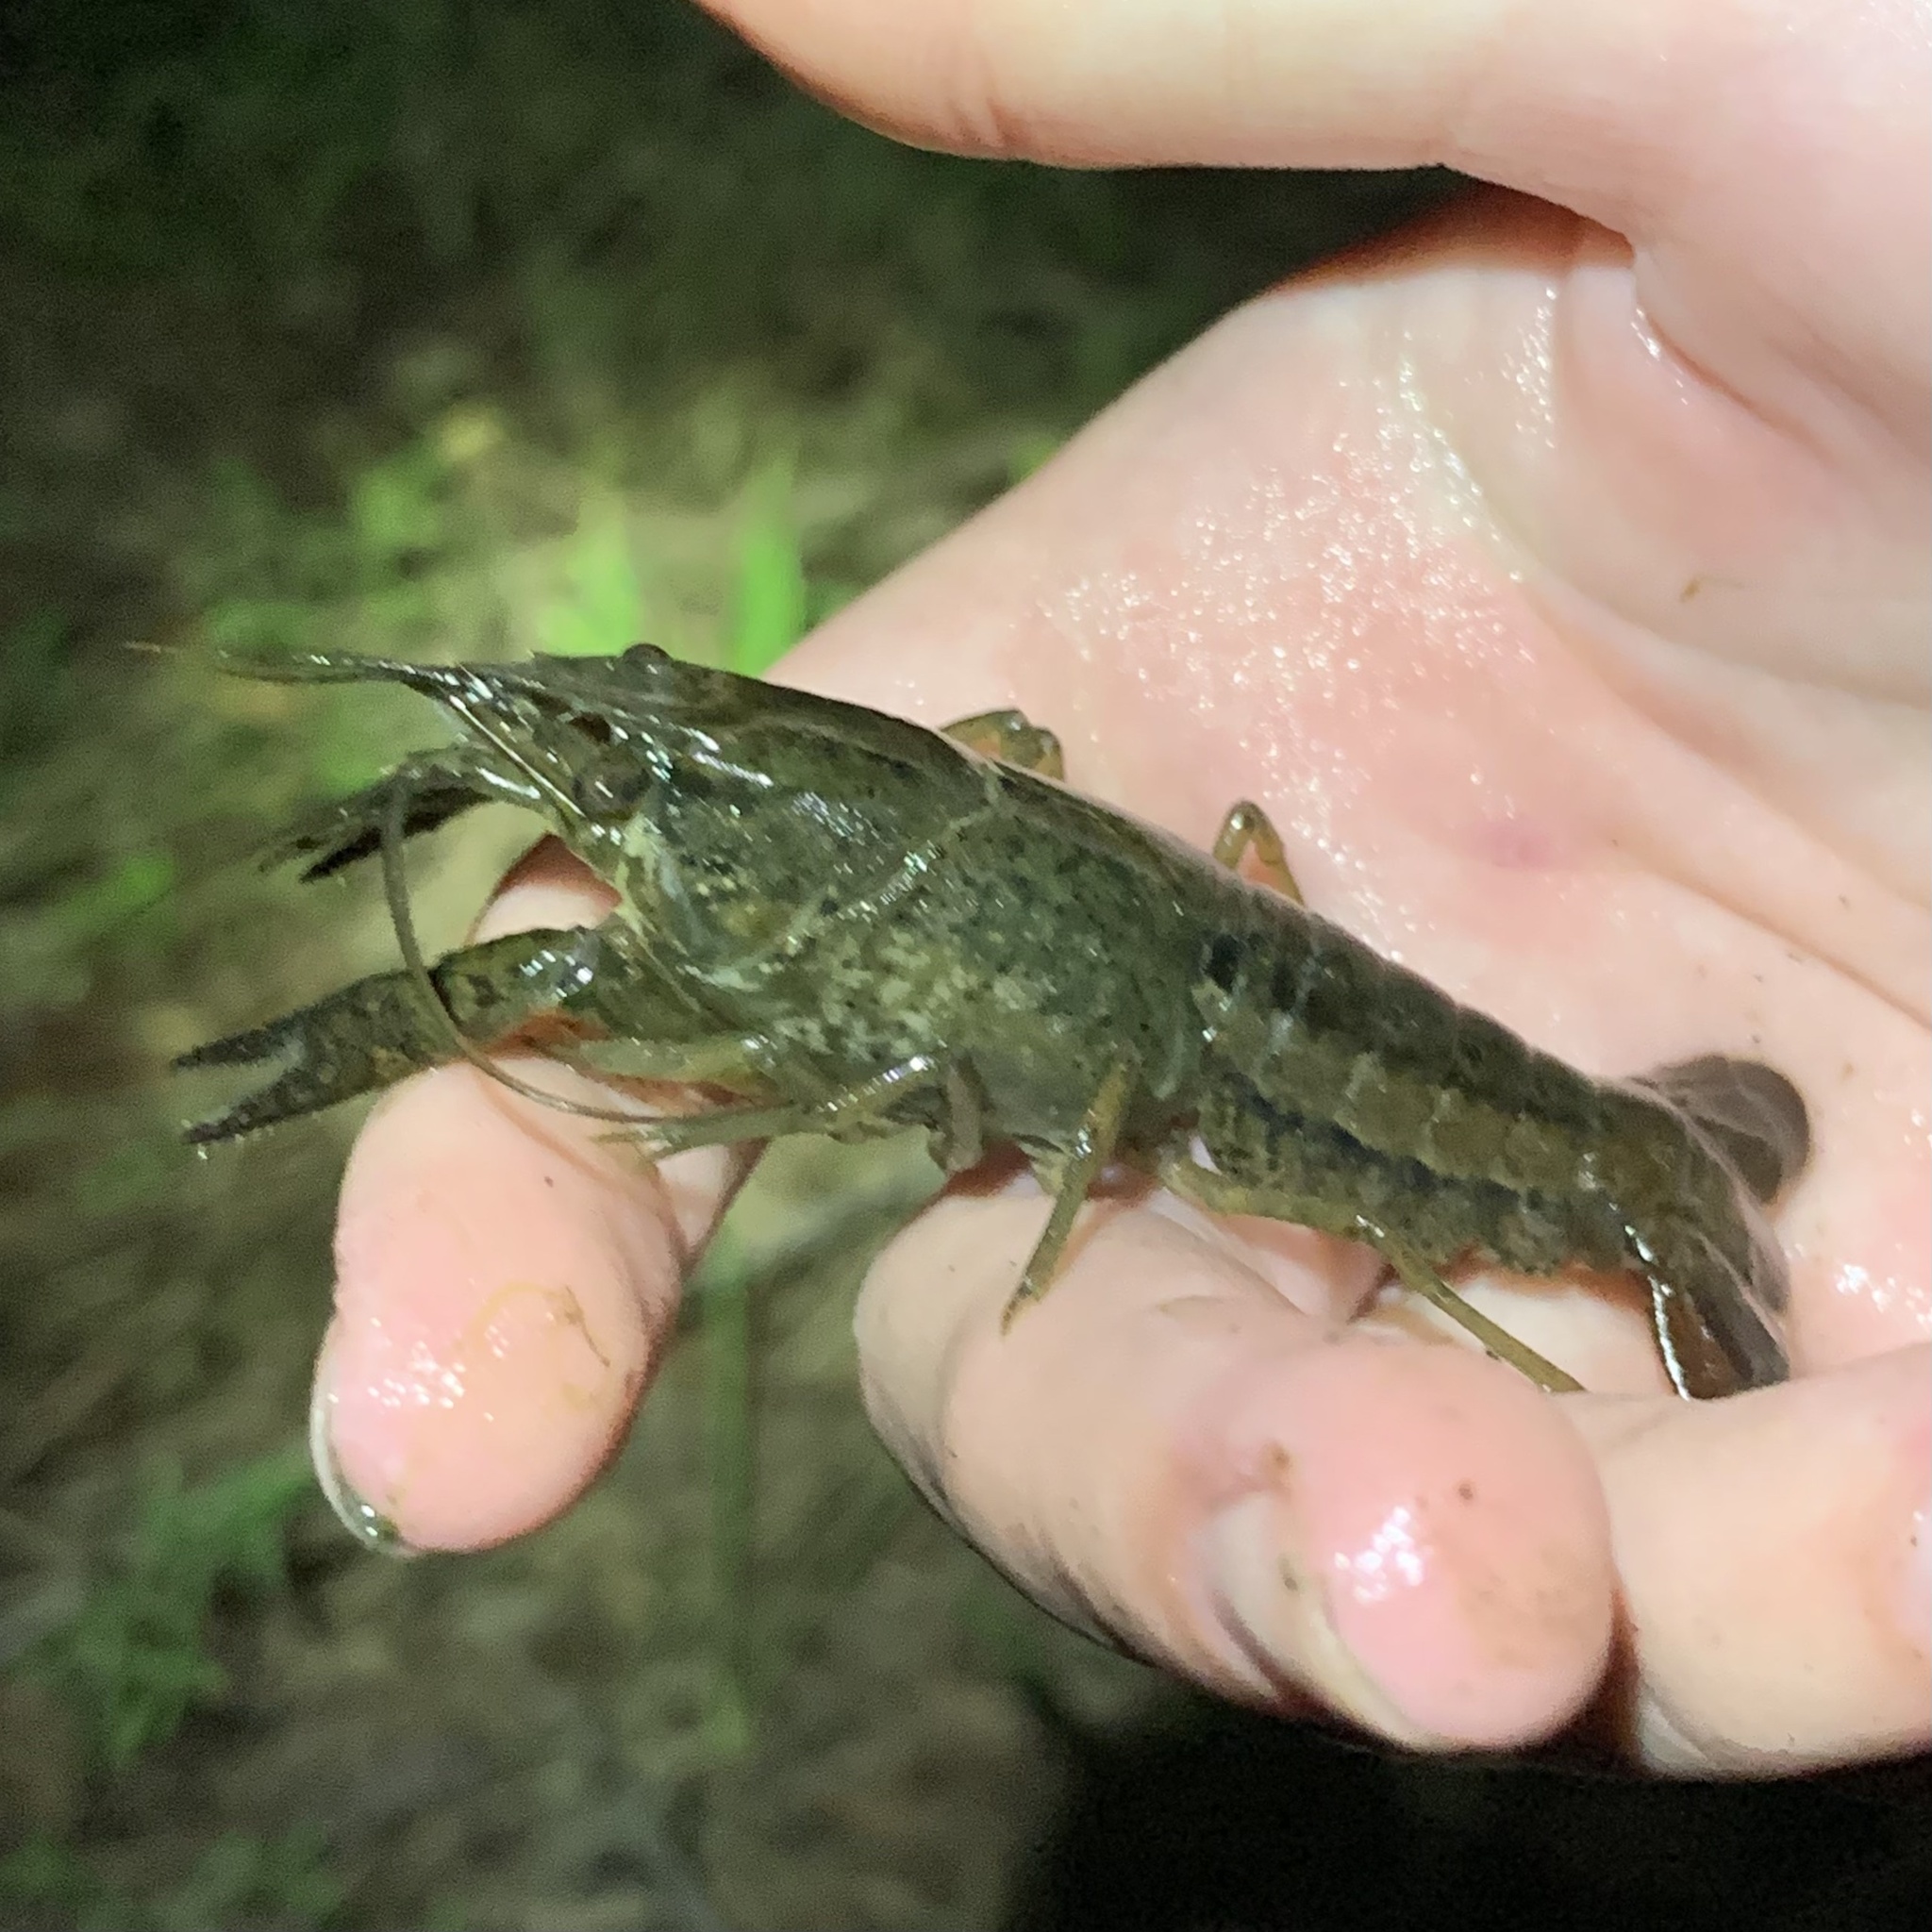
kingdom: Animalia
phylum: Arthropoda
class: Malacostraca
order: Decapoda
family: Cambaridae
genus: Procambarus
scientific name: Procambarus clarkii
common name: Red swamp crayfish
